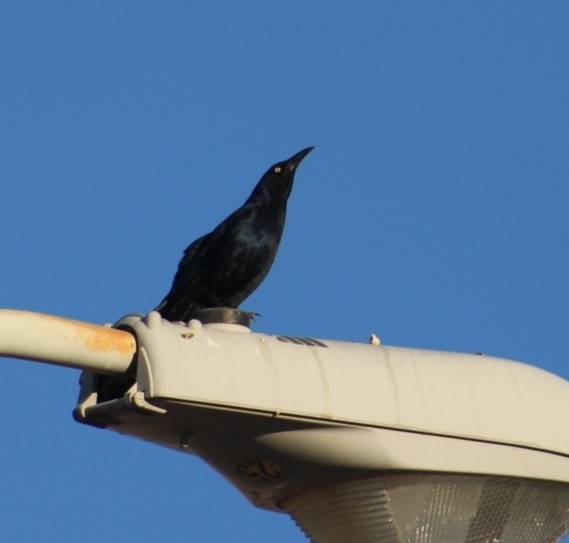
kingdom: Animalia
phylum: Chordata
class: Aves
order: Passeriformes
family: Icteridae
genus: Quiscalus
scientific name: Quiscalus mexicanus
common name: Great-tailed grackle
